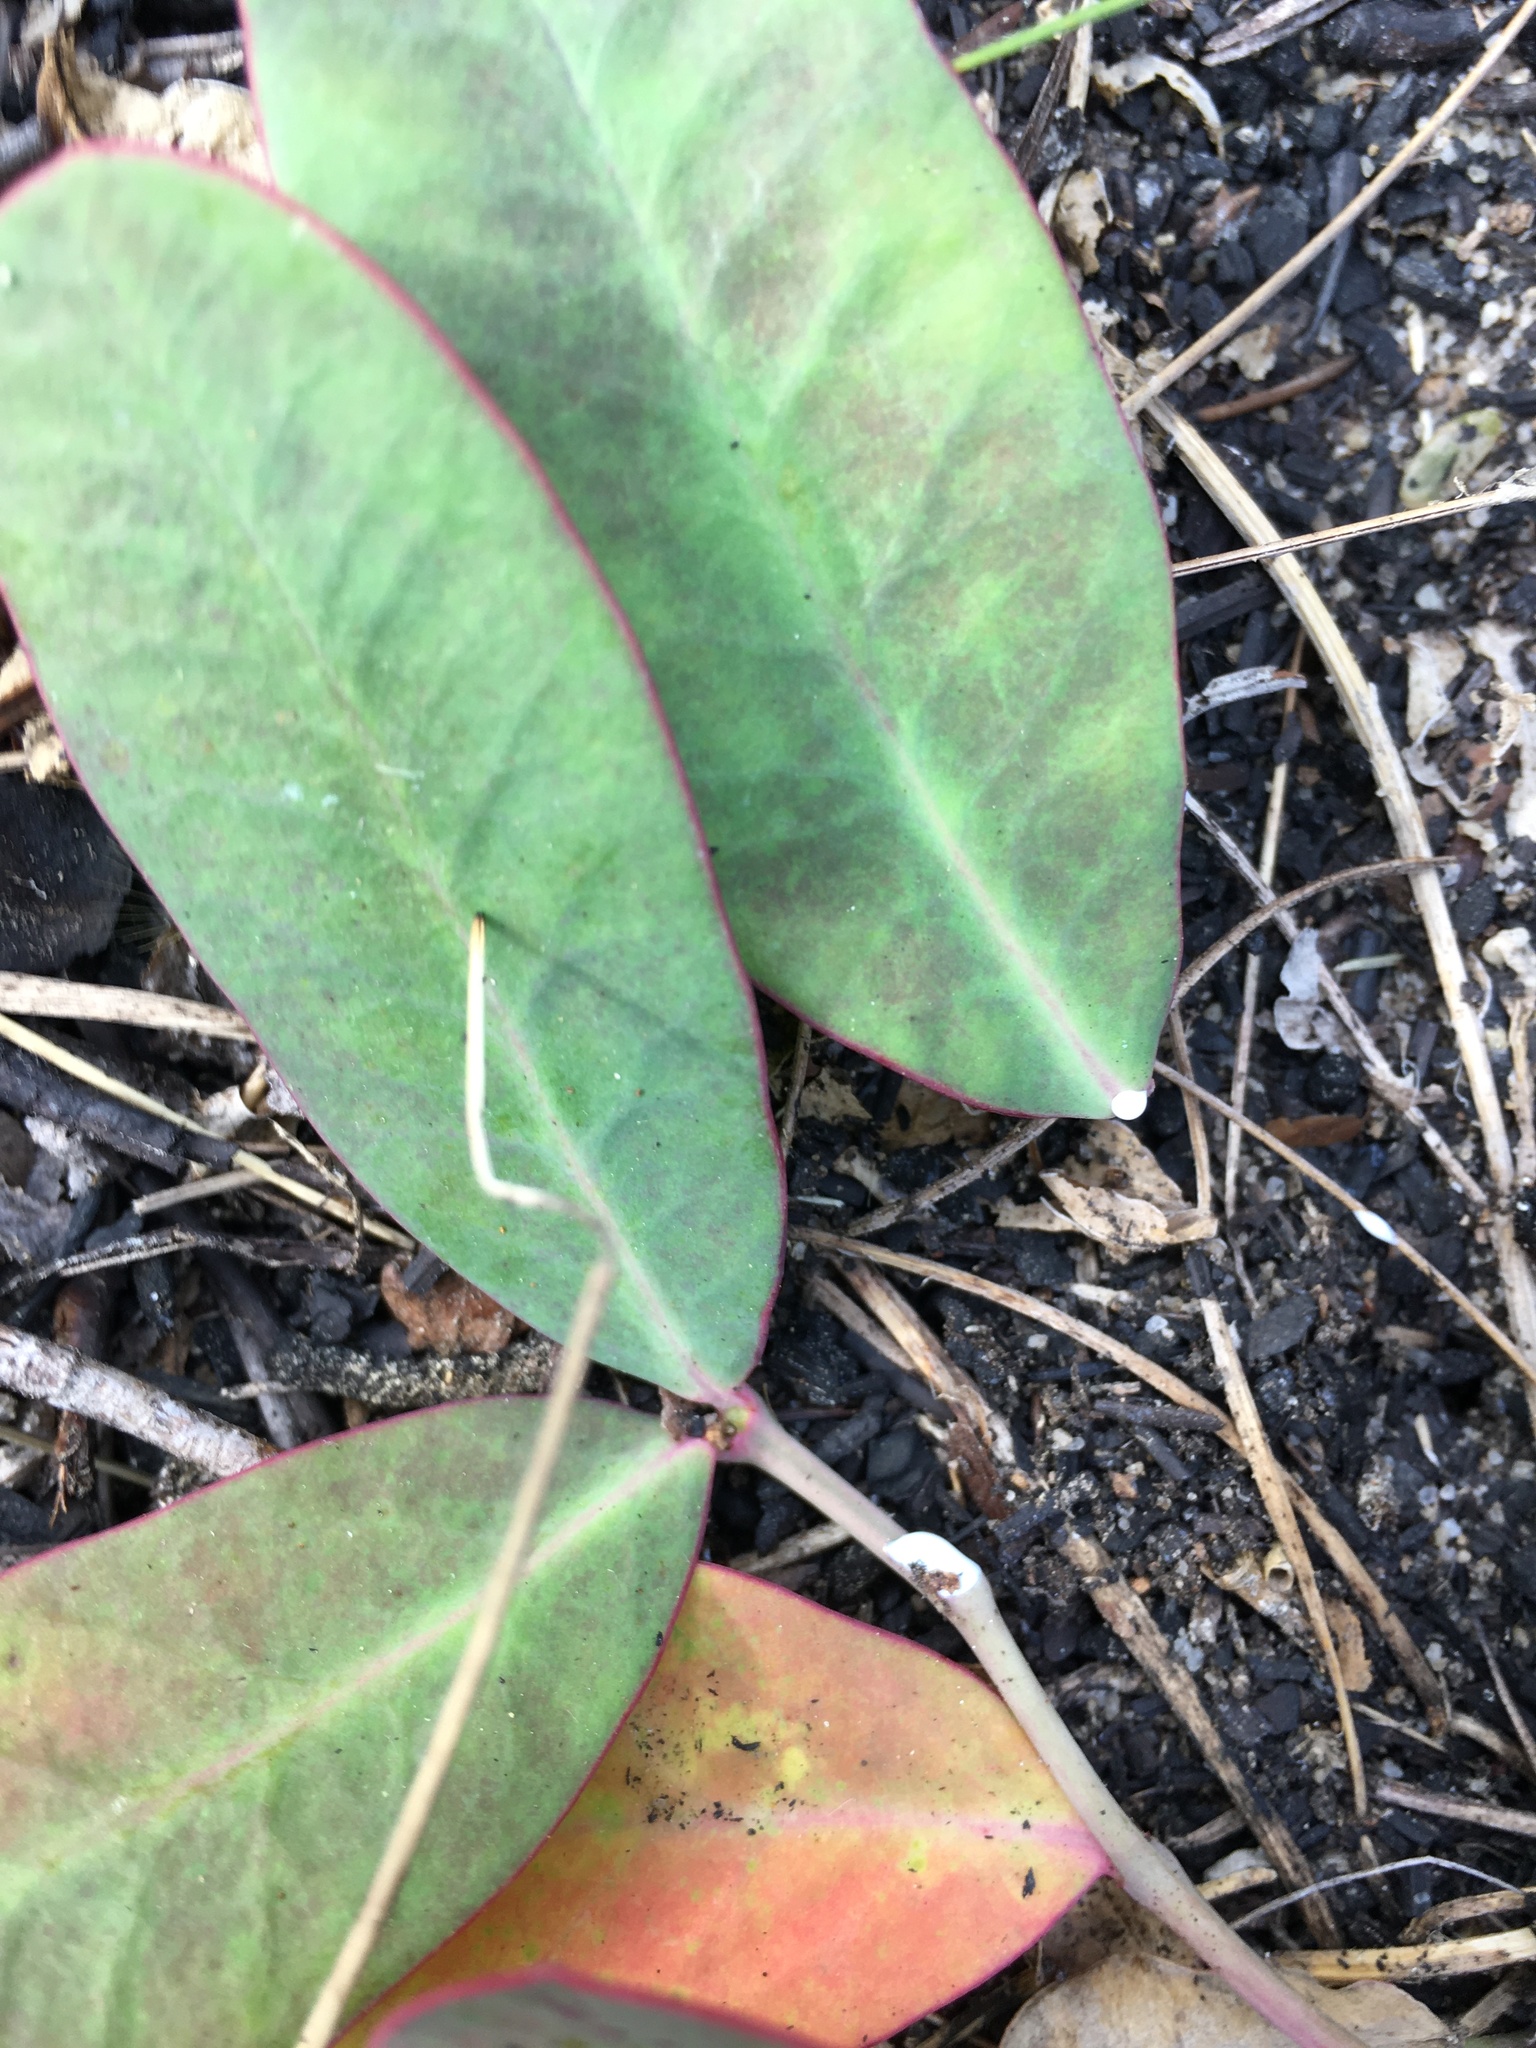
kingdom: Plantae
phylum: Tracheophyta
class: Magnoliopsida
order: Malpighiales
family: Euphorbiaceae
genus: Euphorbia
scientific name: Euphorbia ipecacuanhae
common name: Carolina ipecac
